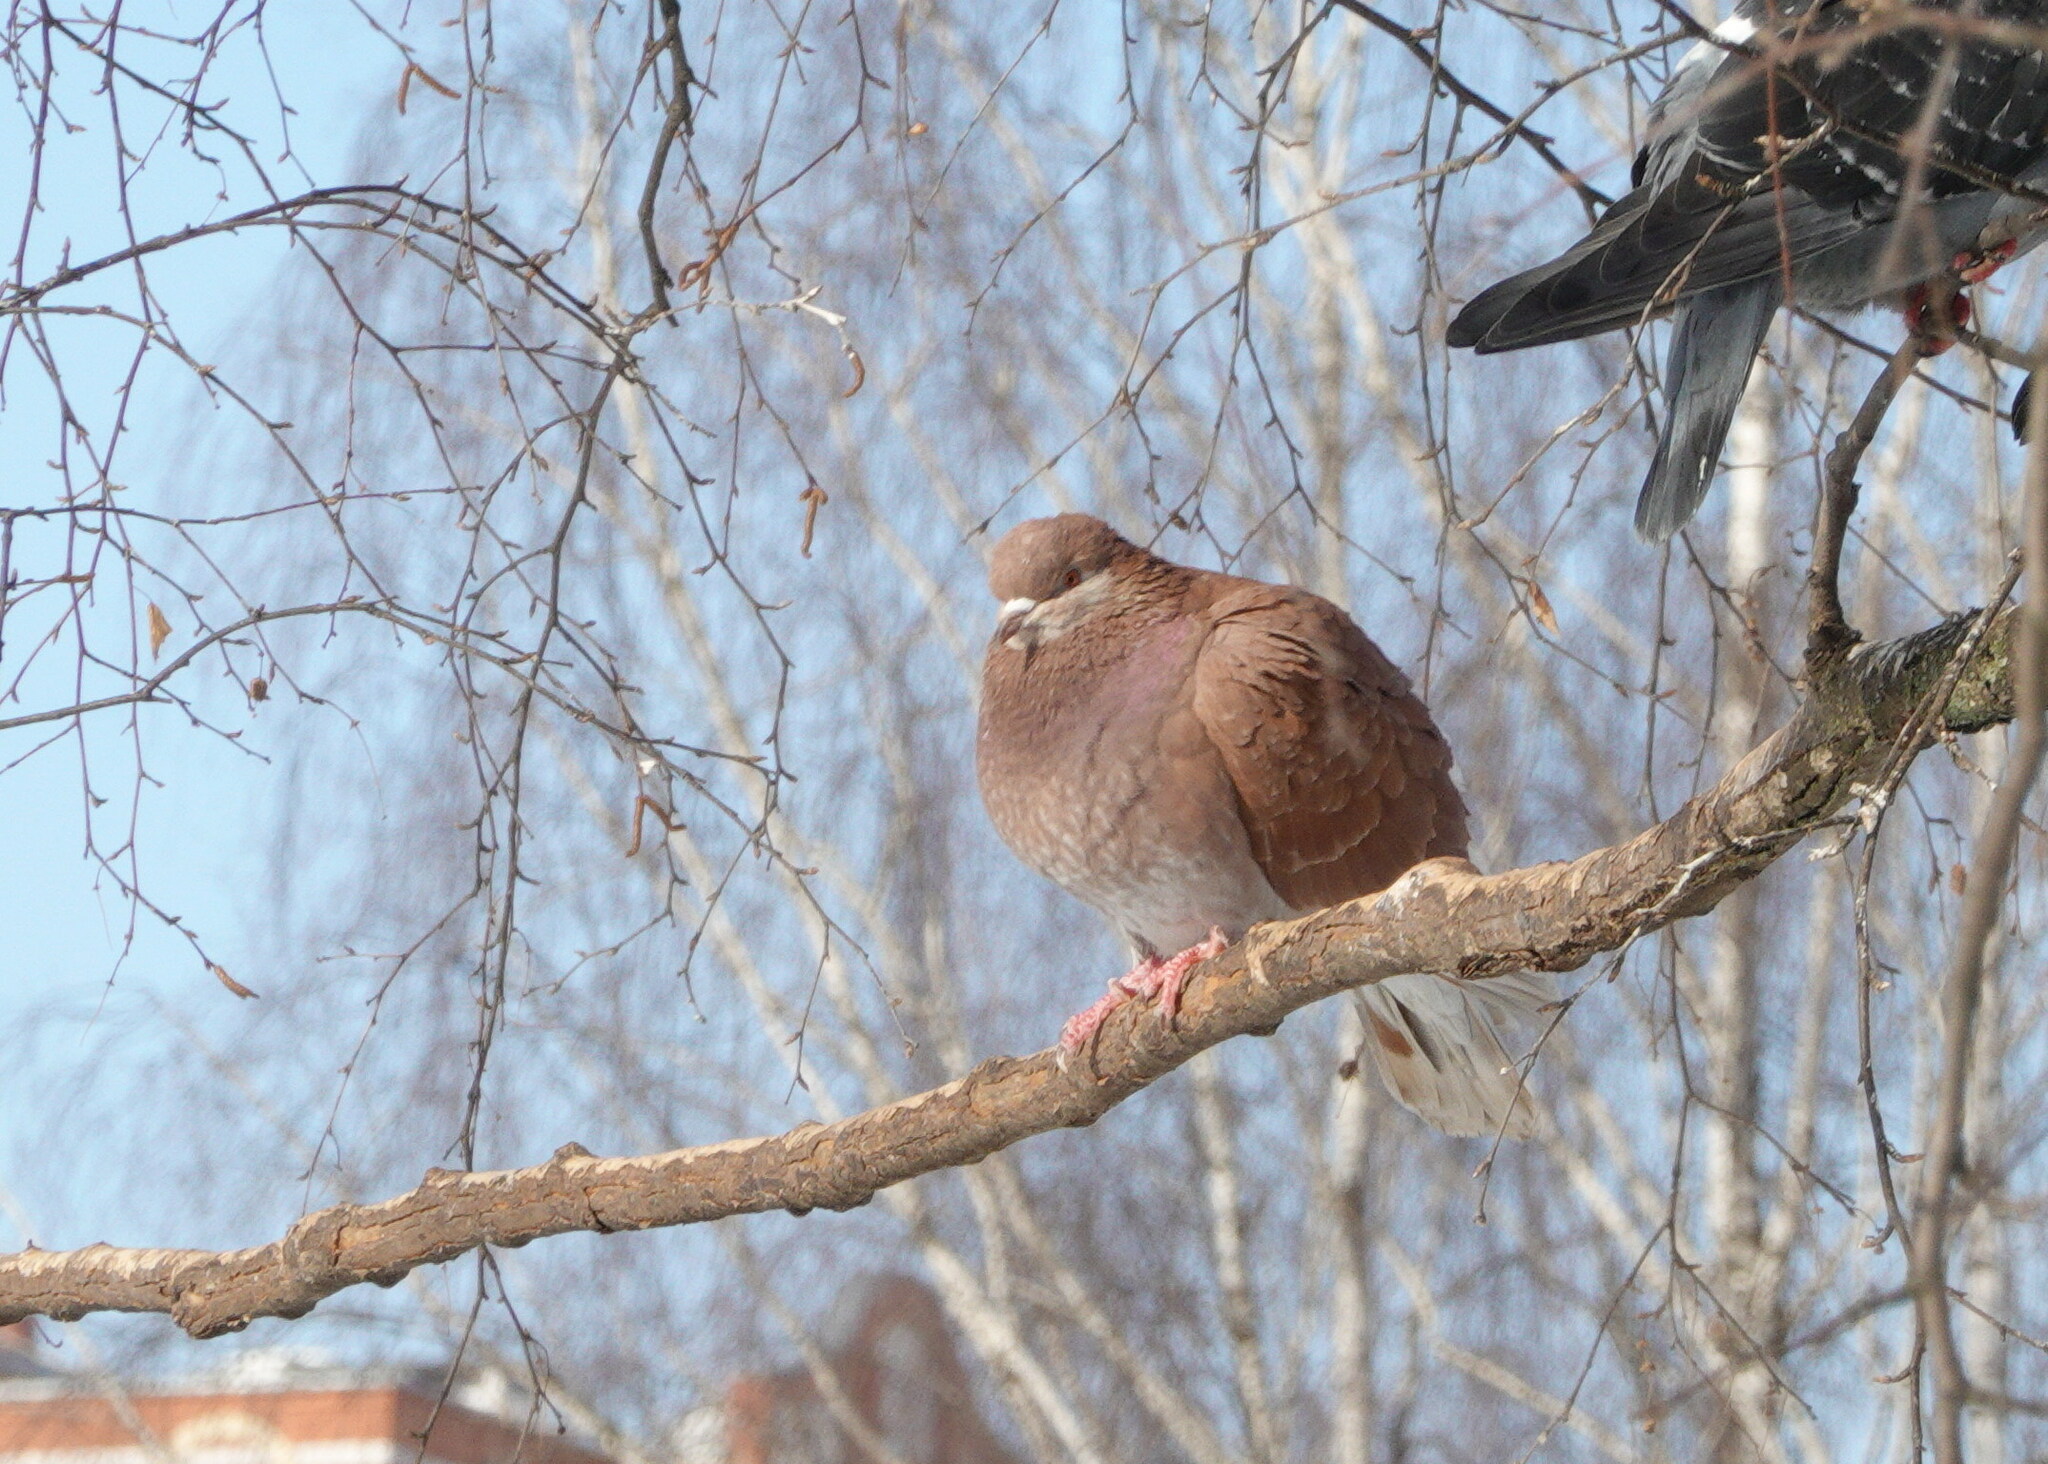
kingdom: Animalia
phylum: Chordata
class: Aves
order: Columbiformes
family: Columbidae
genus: Columba
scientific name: Columba livia
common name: Rock pigeon
